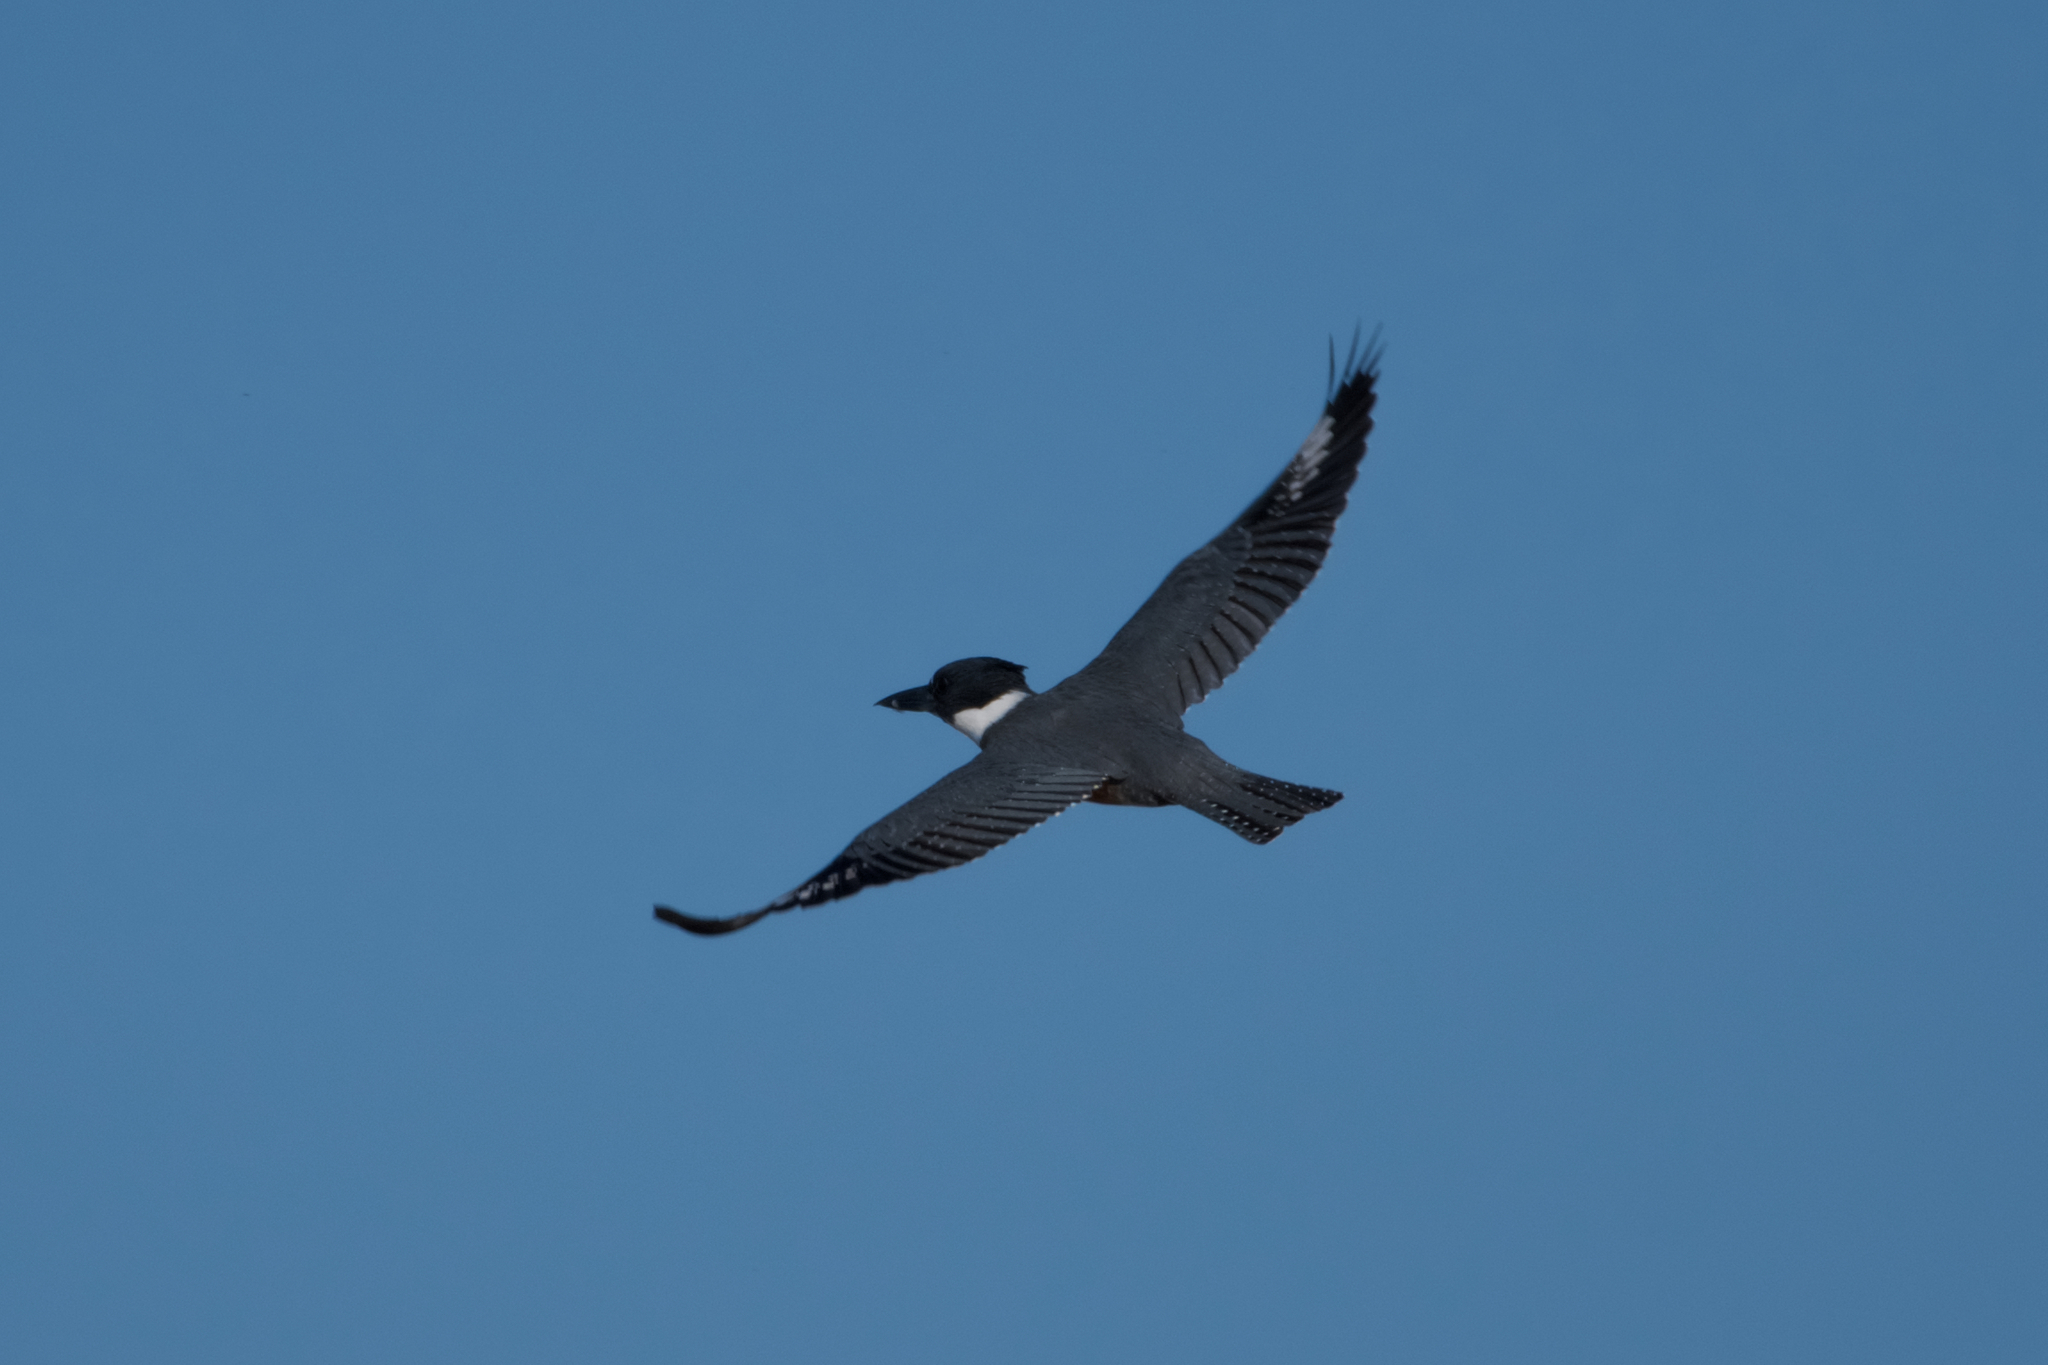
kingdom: Animalia
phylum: Chordata
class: Aves
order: Coraciiformes
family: Alcedinidae
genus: Megaceryle
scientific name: Megaceryle alcyon
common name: Belted kingfisher
